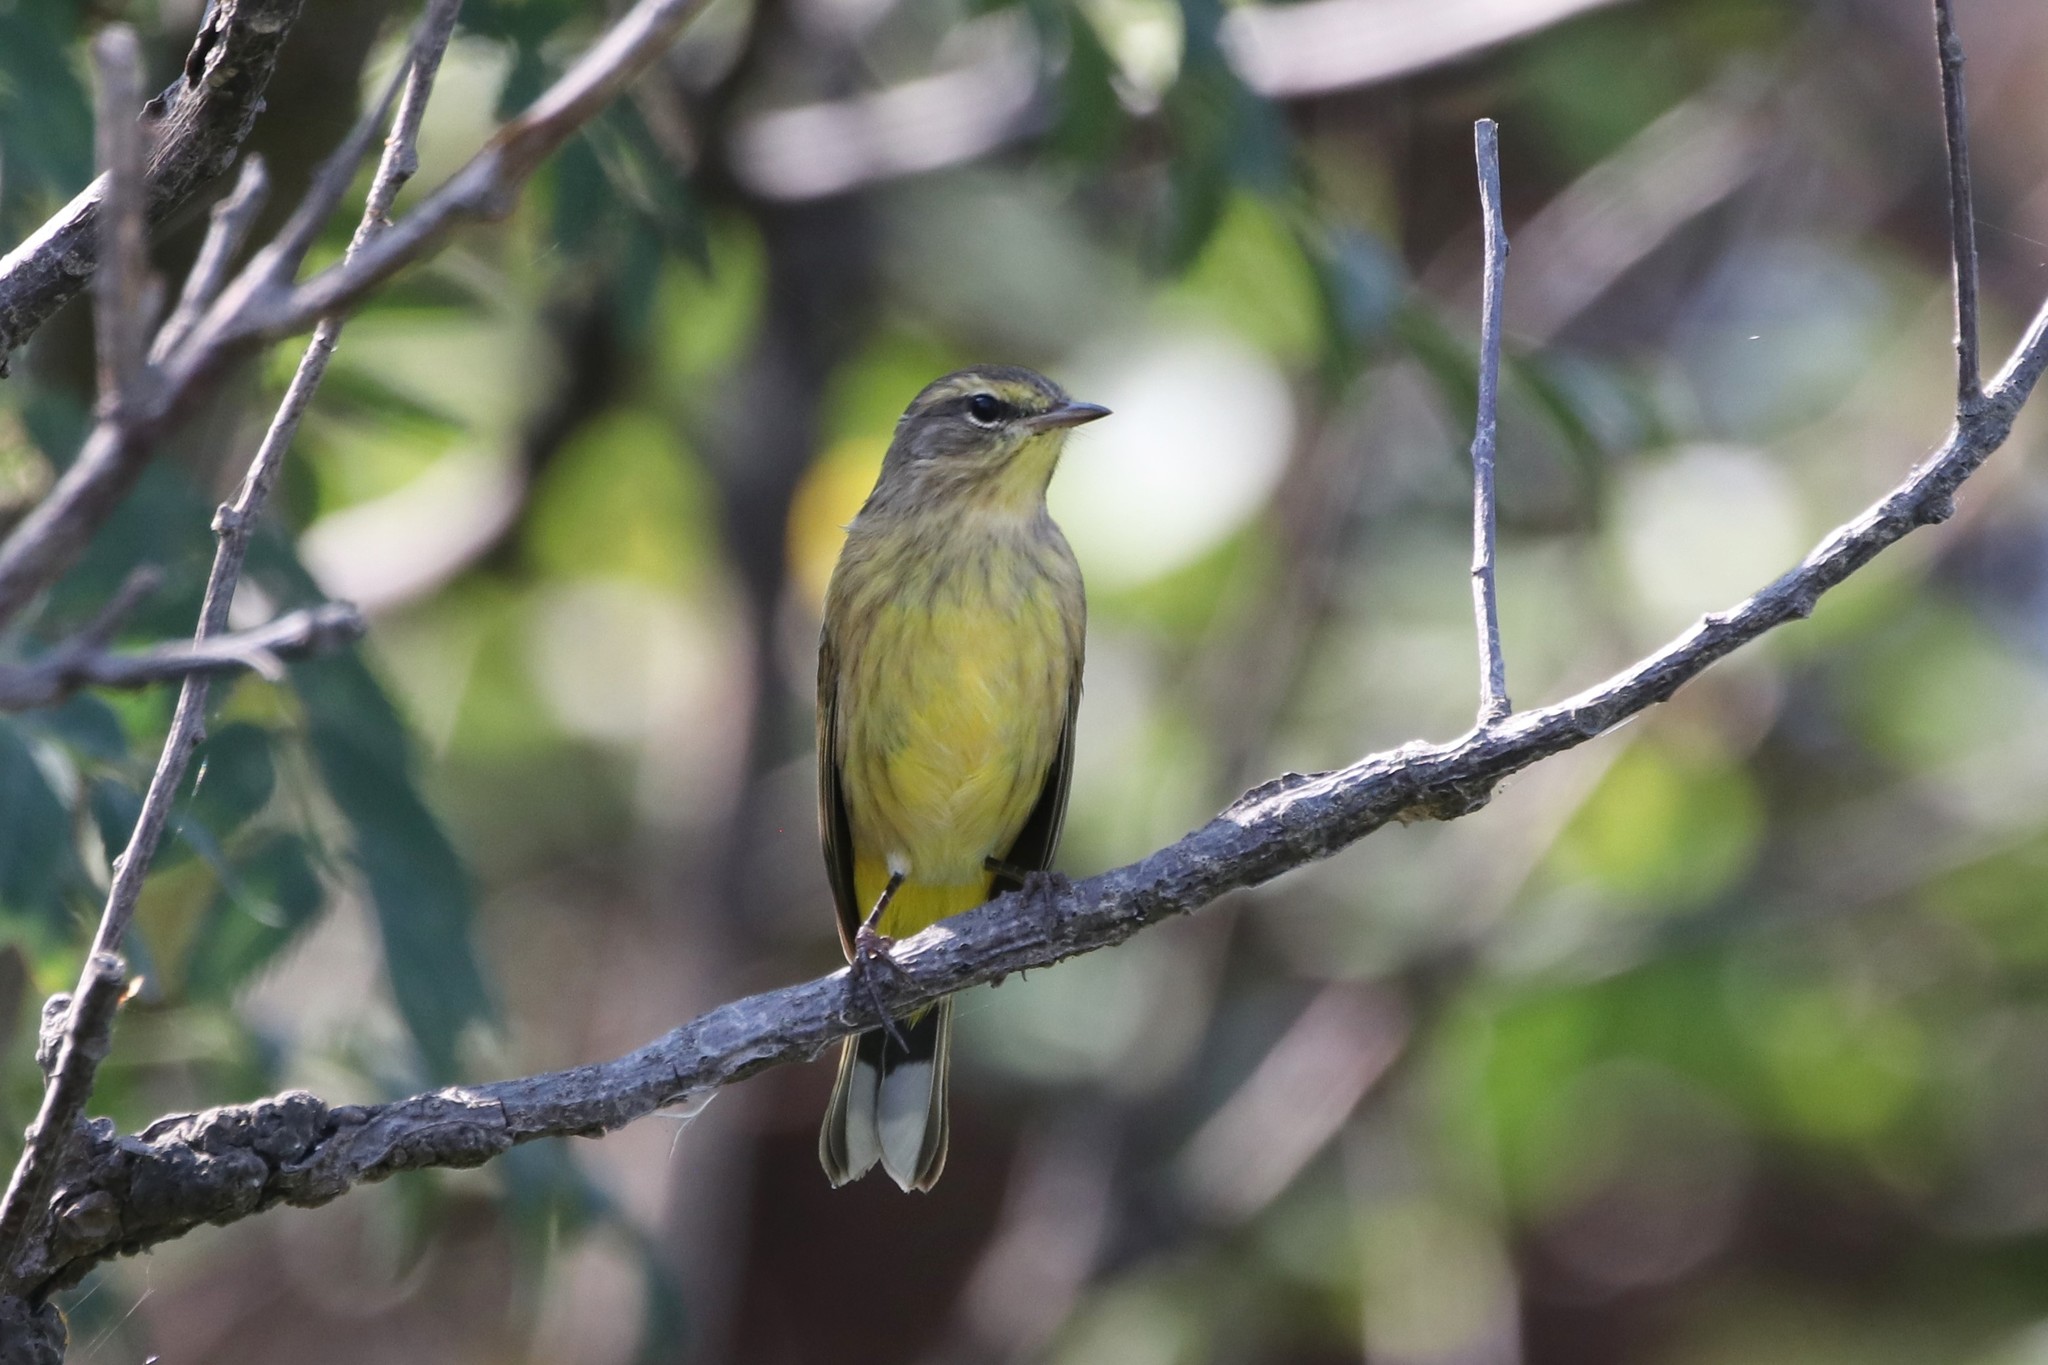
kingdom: Animalia
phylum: Chordata
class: Aves
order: Passeriformes
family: Parulidae
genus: Setophaga
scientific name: Setophaga palmarum
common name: Palm warbler
